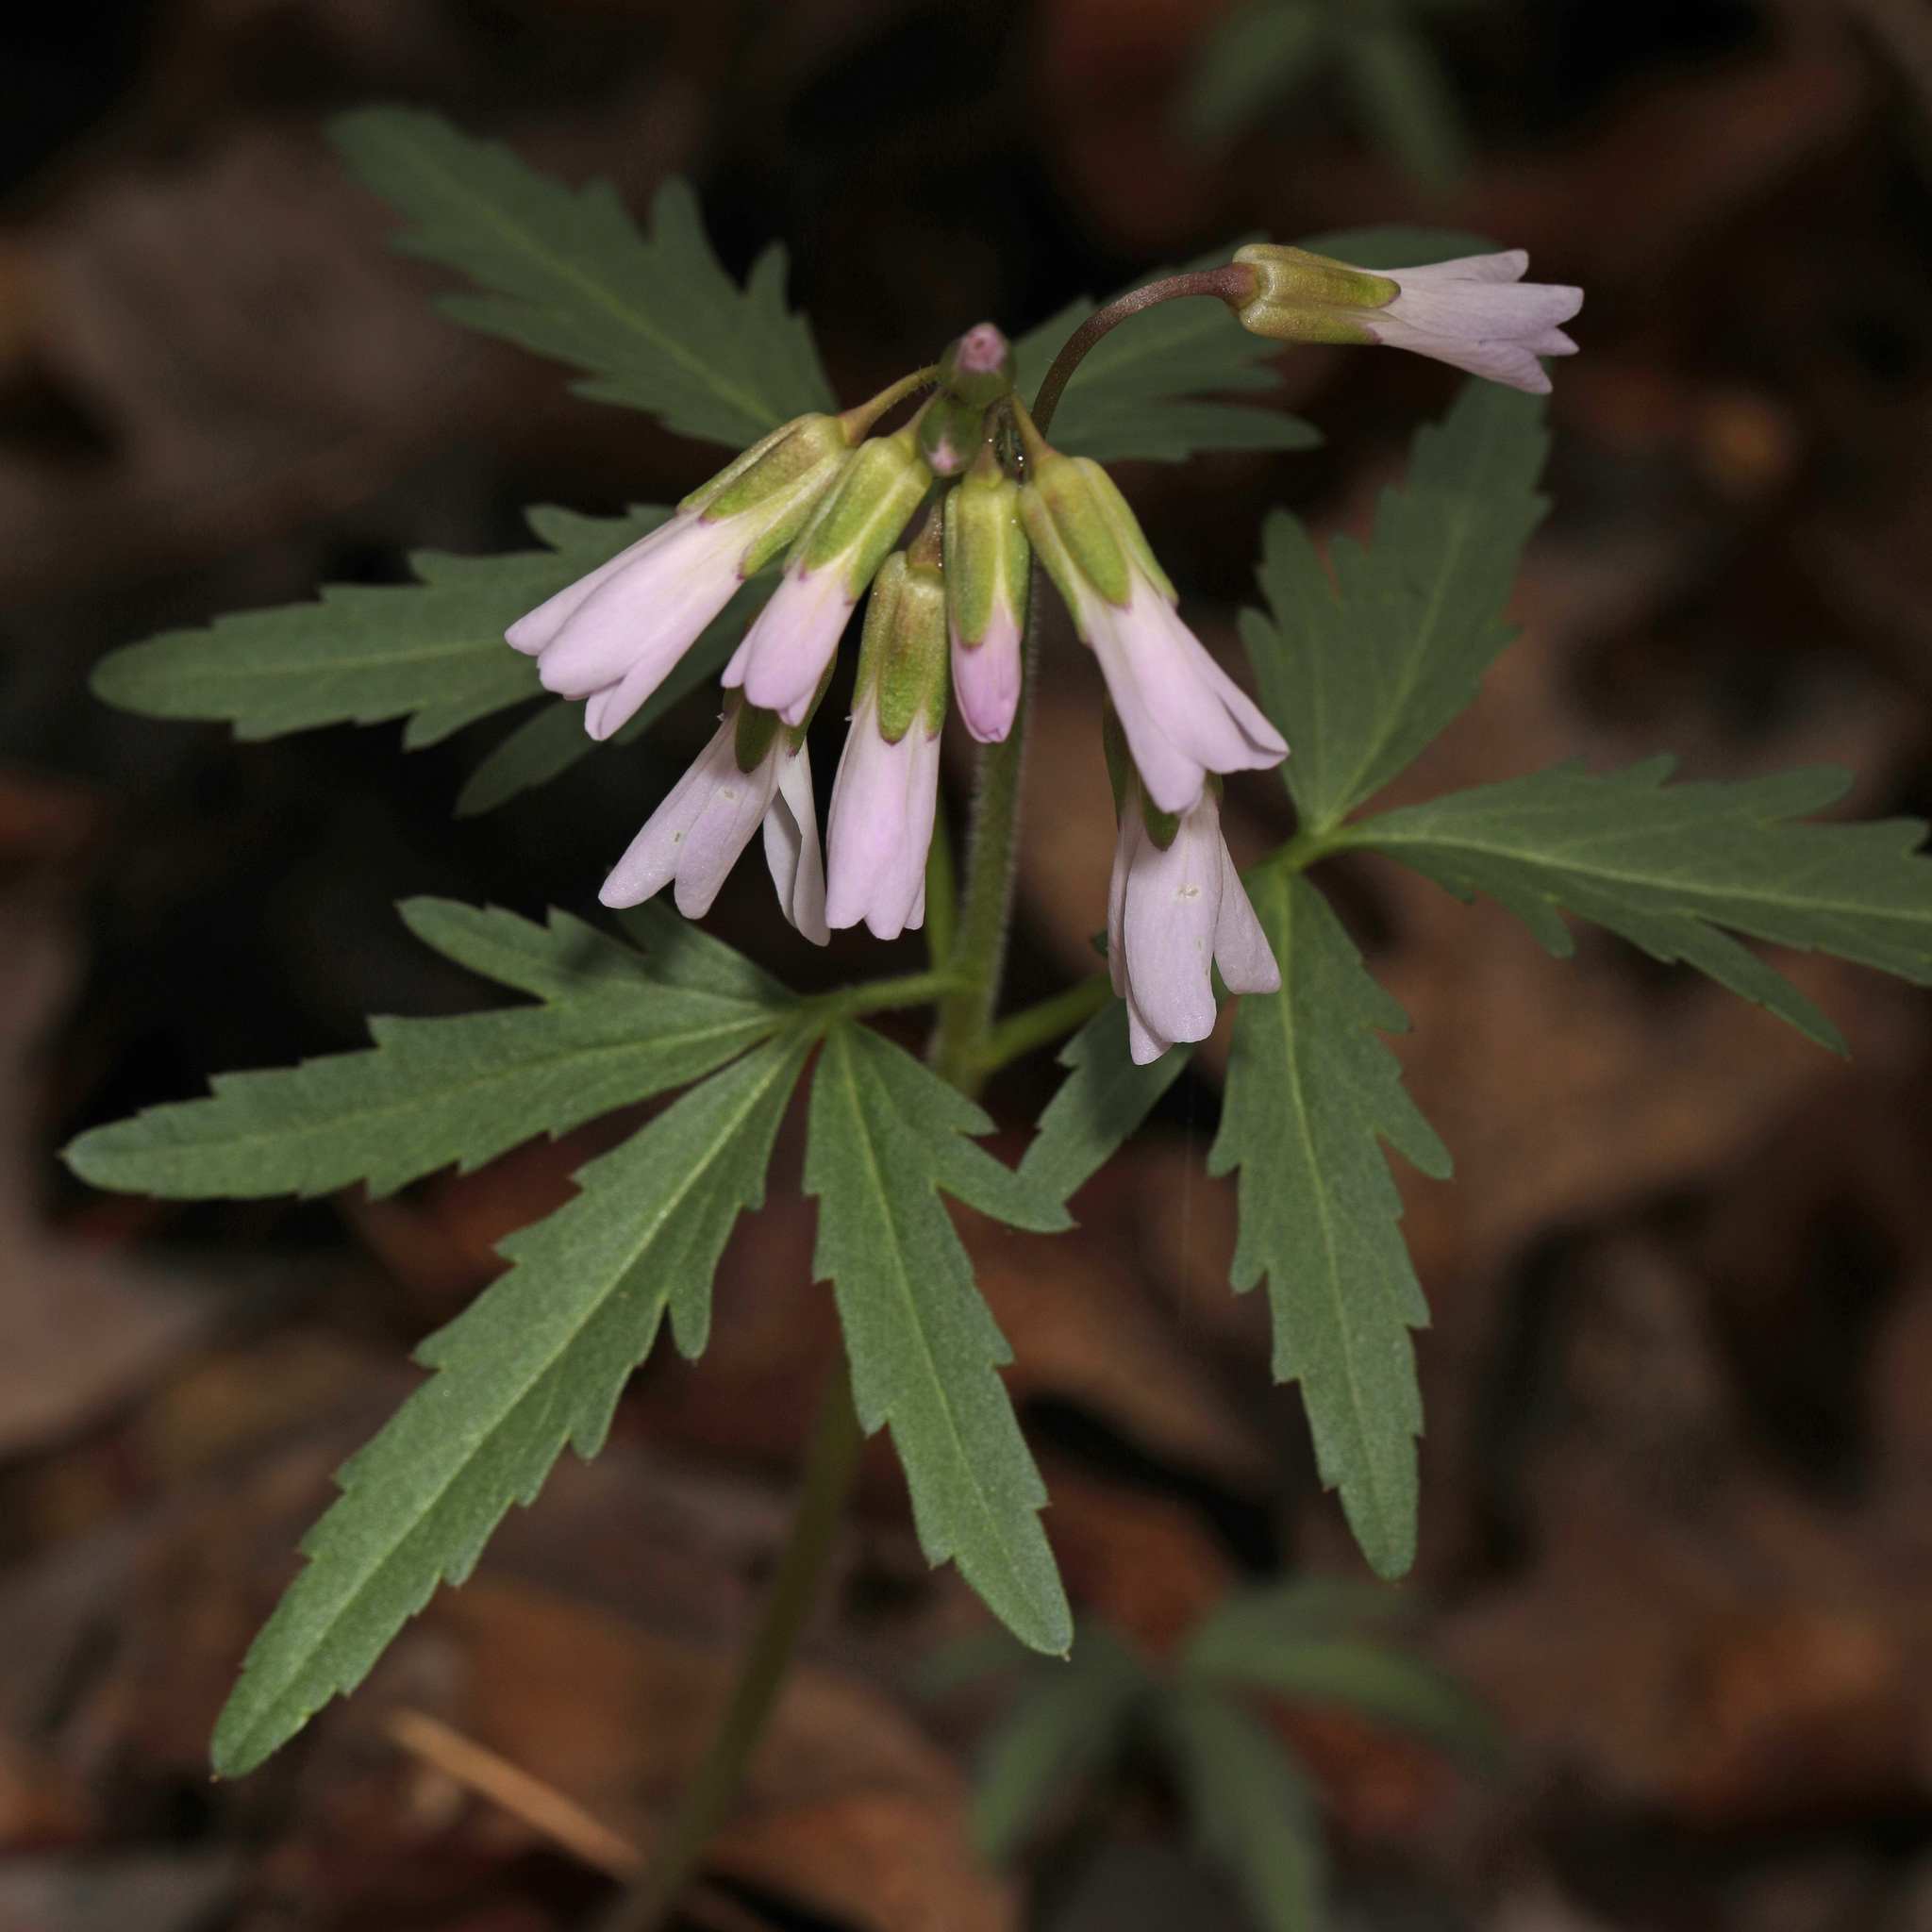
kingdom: Plantae
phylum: Tracheophyta
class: Magnoliopsida
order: Brassicales
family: Brassicaceae
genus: Cardamine
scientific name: Cardamine concatenata
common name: Cut-leaf toothcup
